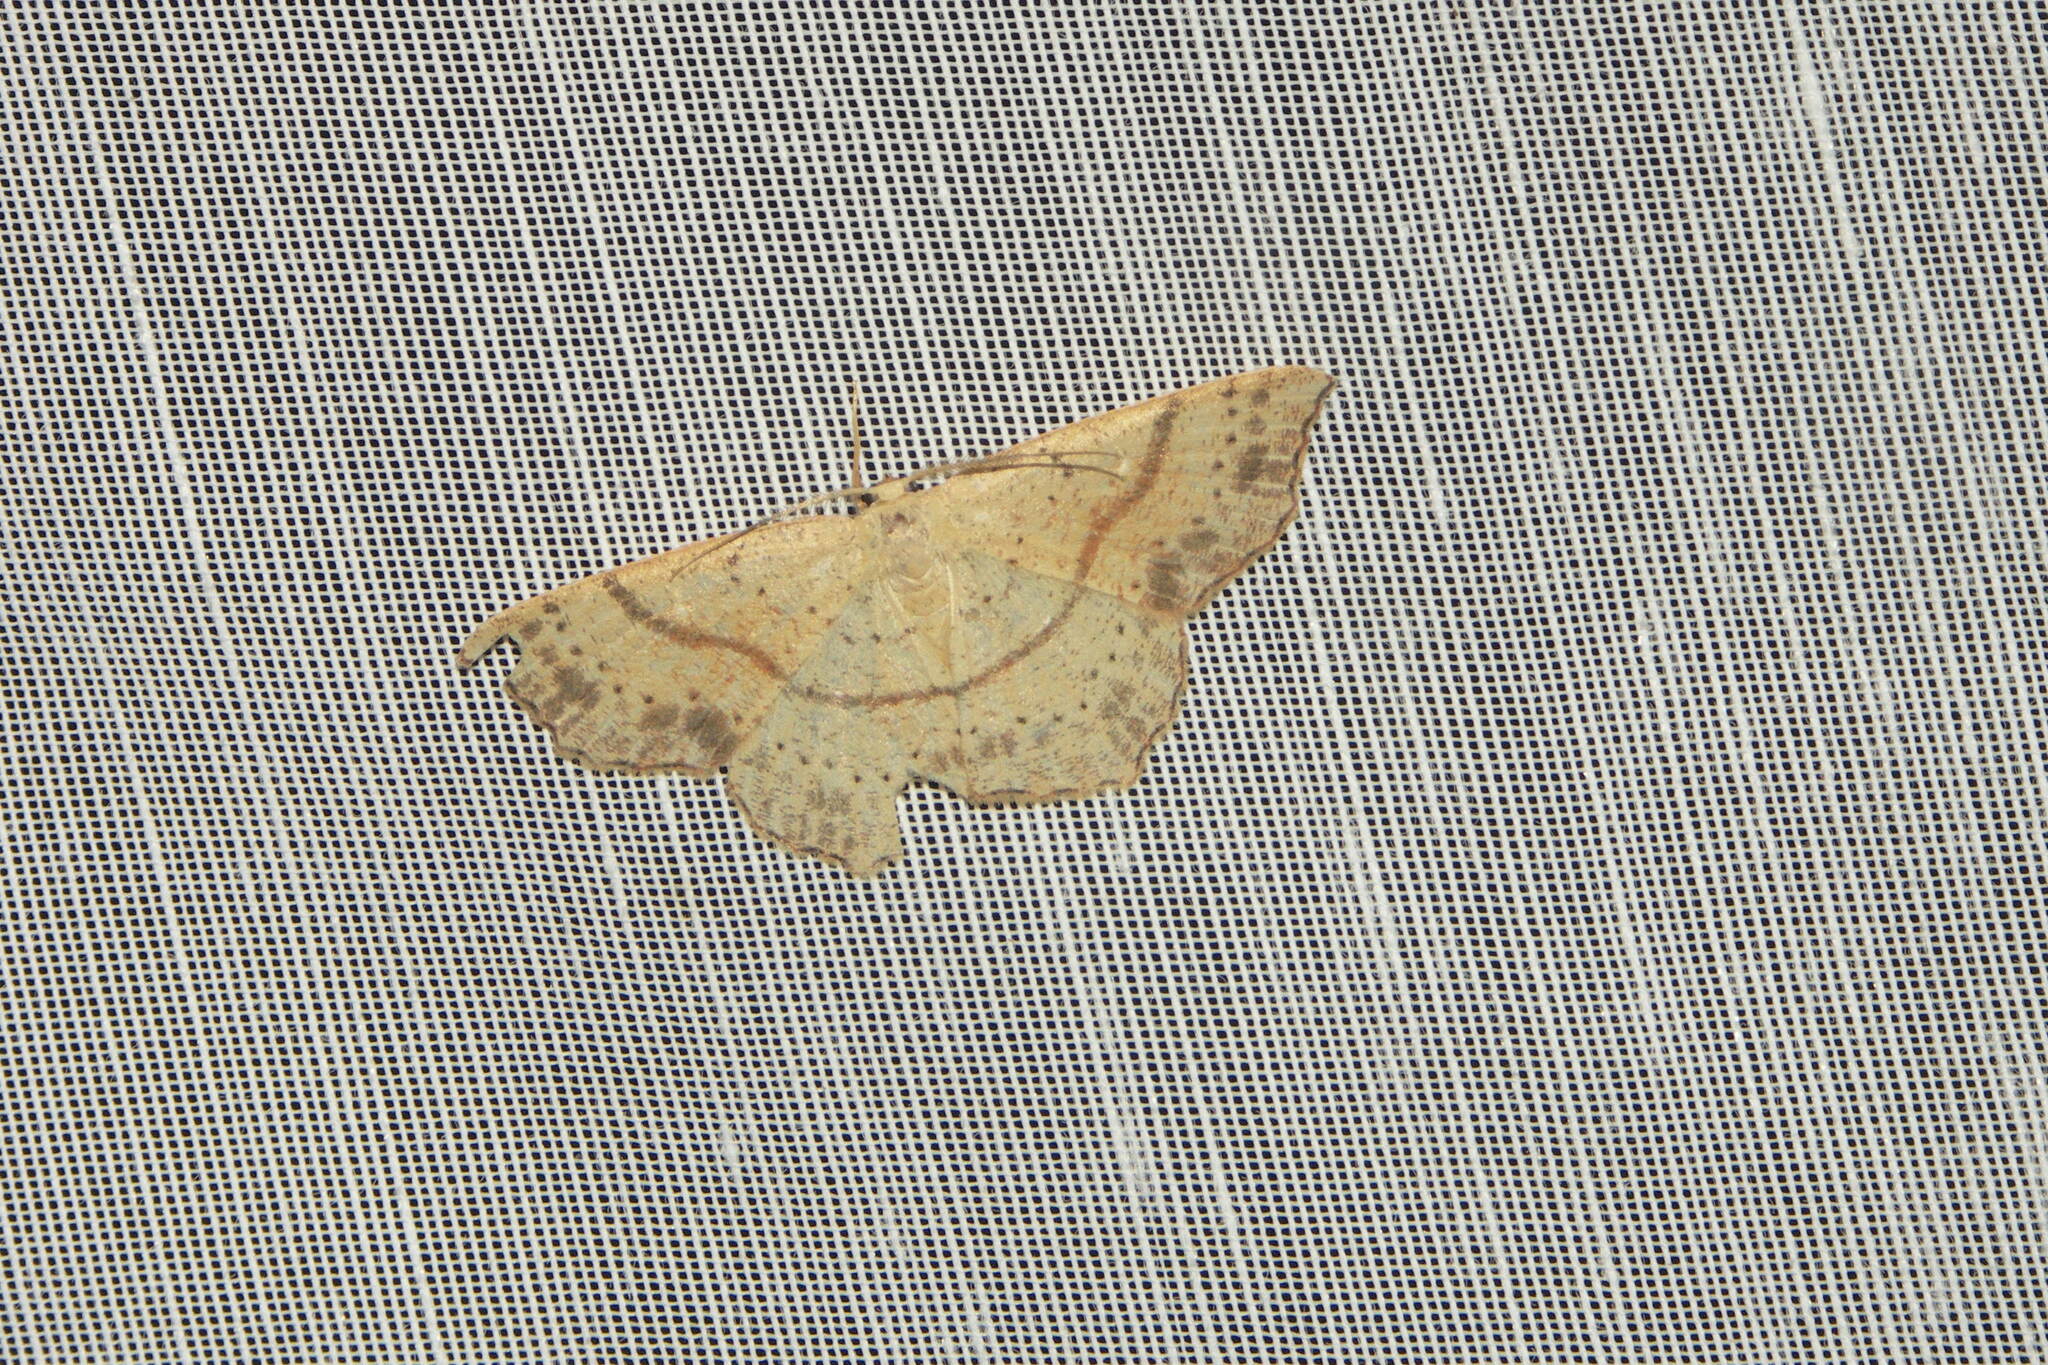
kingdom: Animalia
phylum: Arthropoda
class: Insecta
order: Lepidoptera
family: Geometridae
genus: Cyclophora
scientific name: Cyclophora punctaria
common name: Maiden's blush
